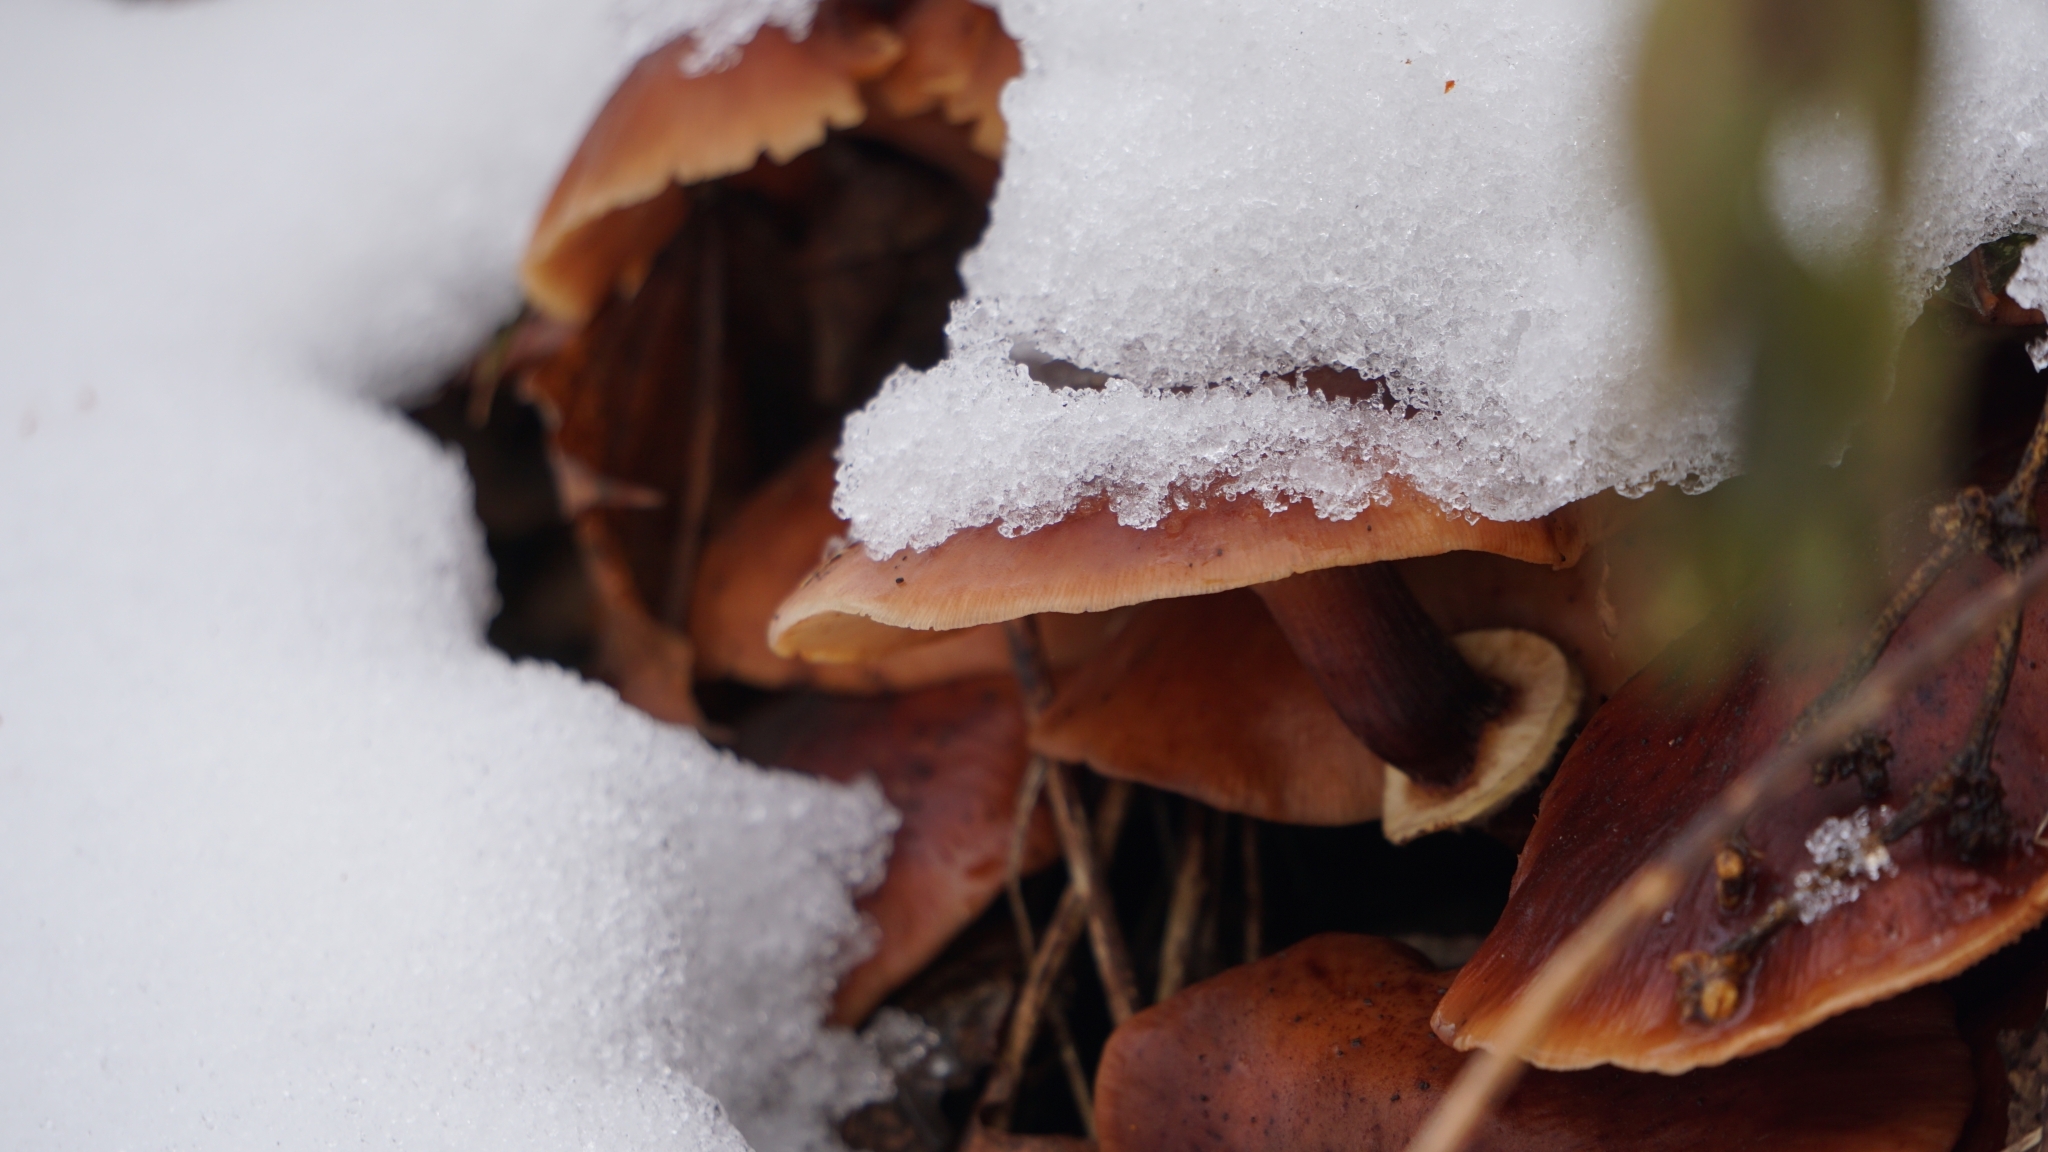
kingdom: Fungi
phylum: Basidiomycota
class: Agaricomycetes
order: Agaricales
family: Physalacriaceae
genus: Armillaria
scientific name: Armillaria mellea
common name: Honey fungus
